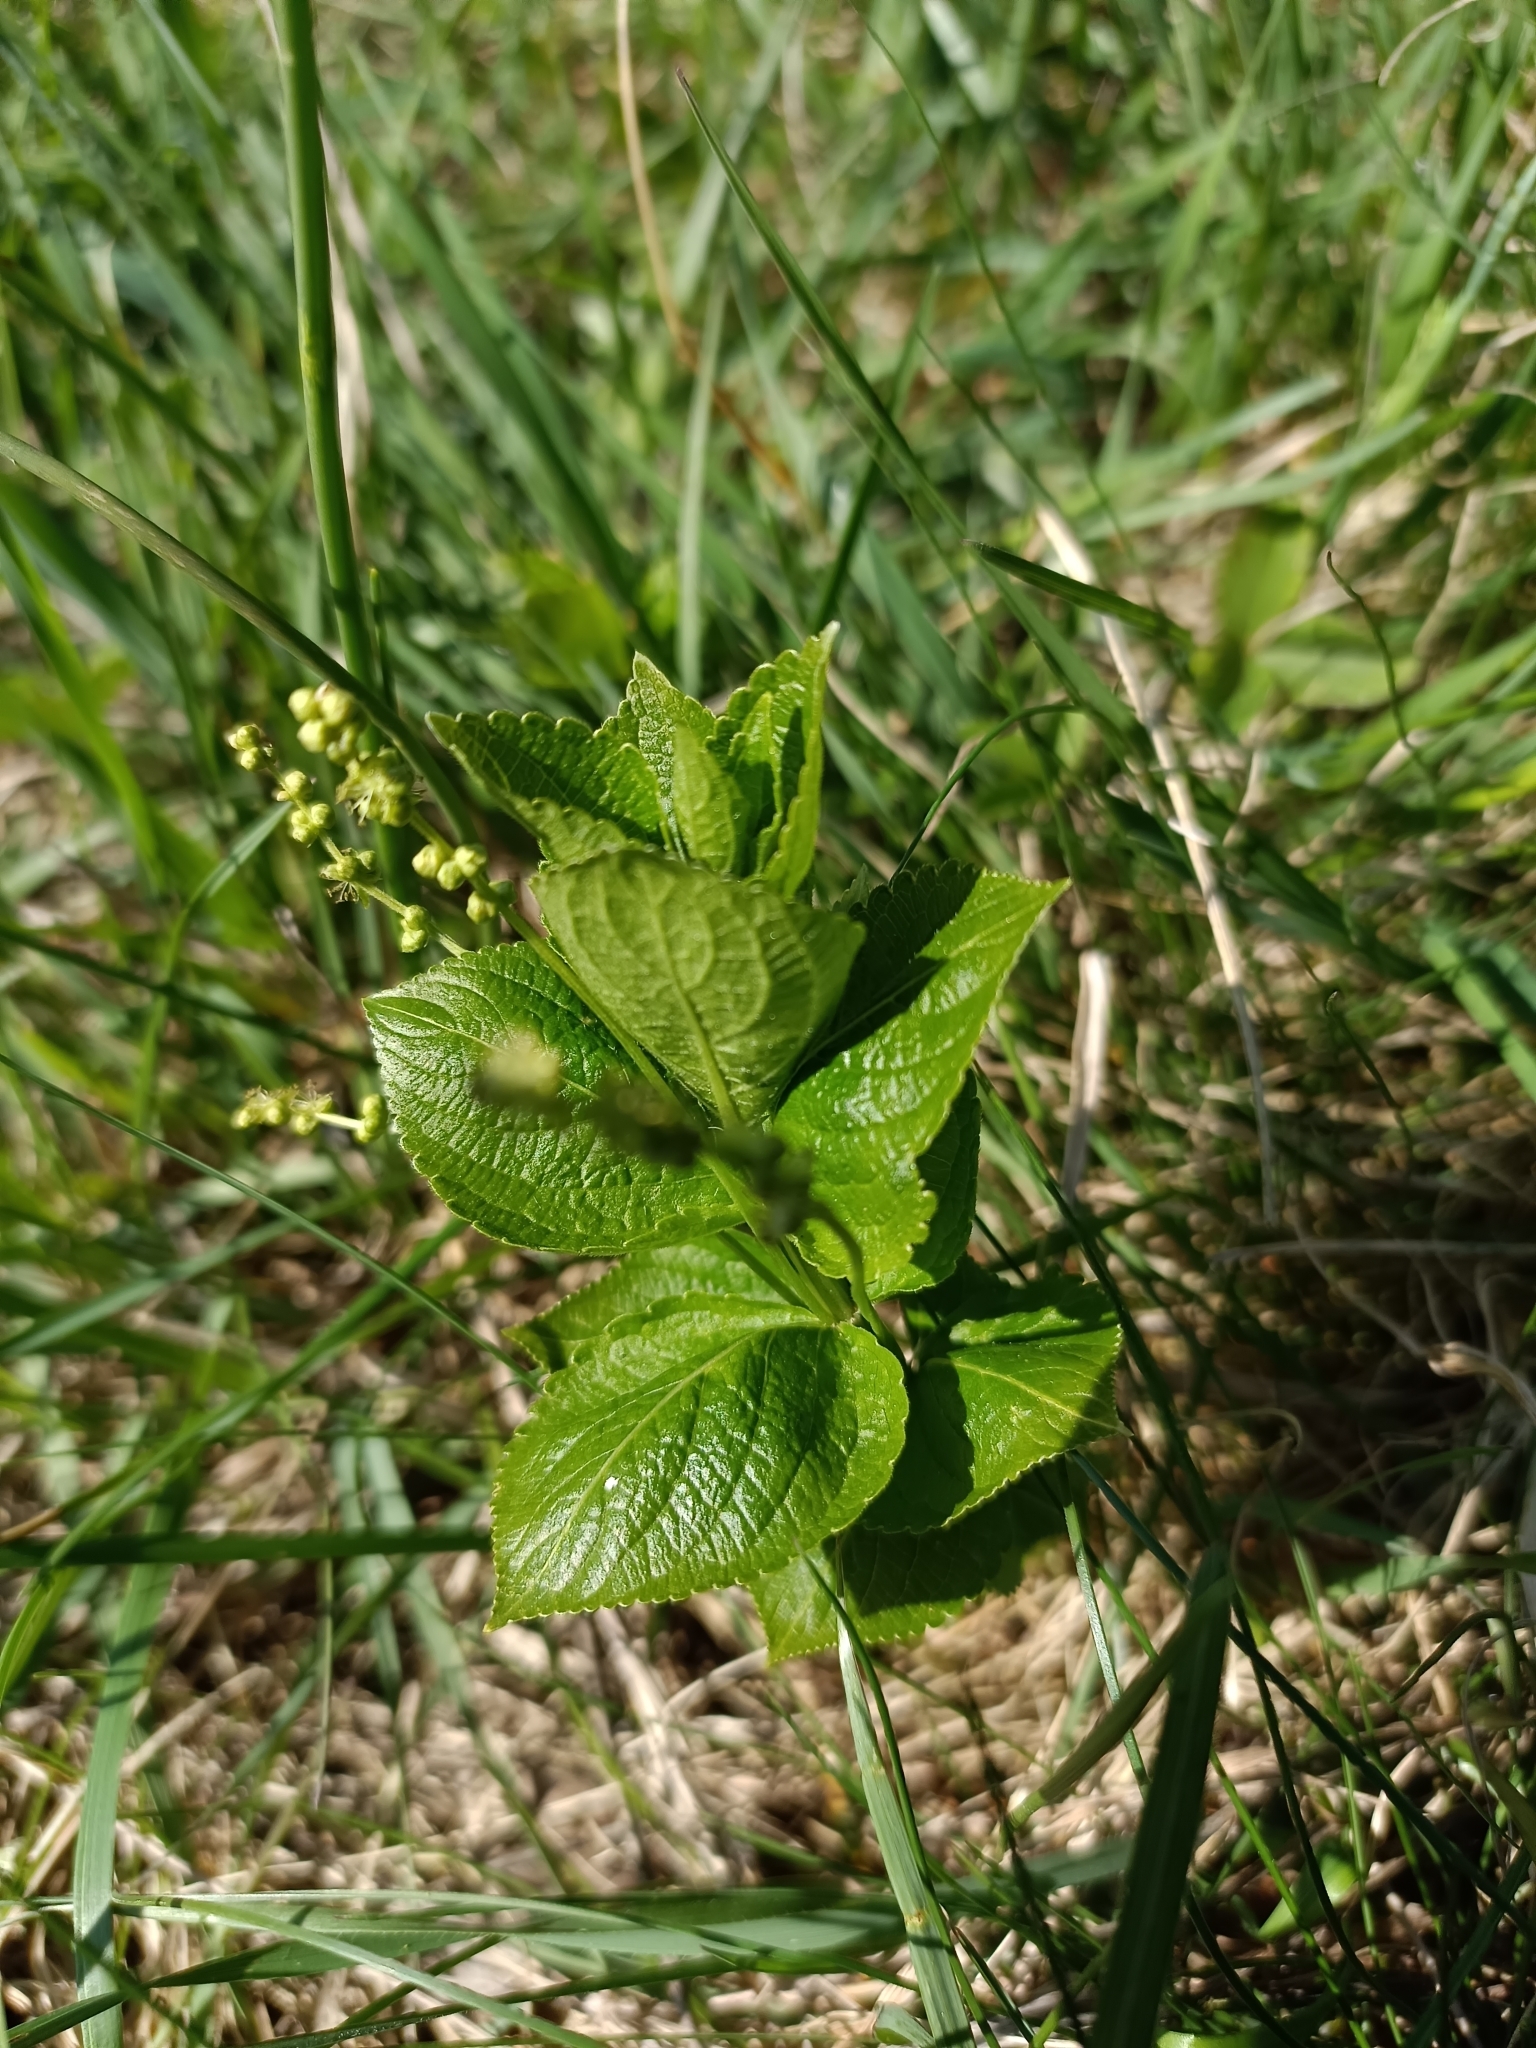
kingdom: Plantae
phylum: Tracheophyta
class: Magnoliopsida
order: Malpighiales
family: Euphorbiaceae
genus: Mercurialis
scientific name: Mercurialis ovata
